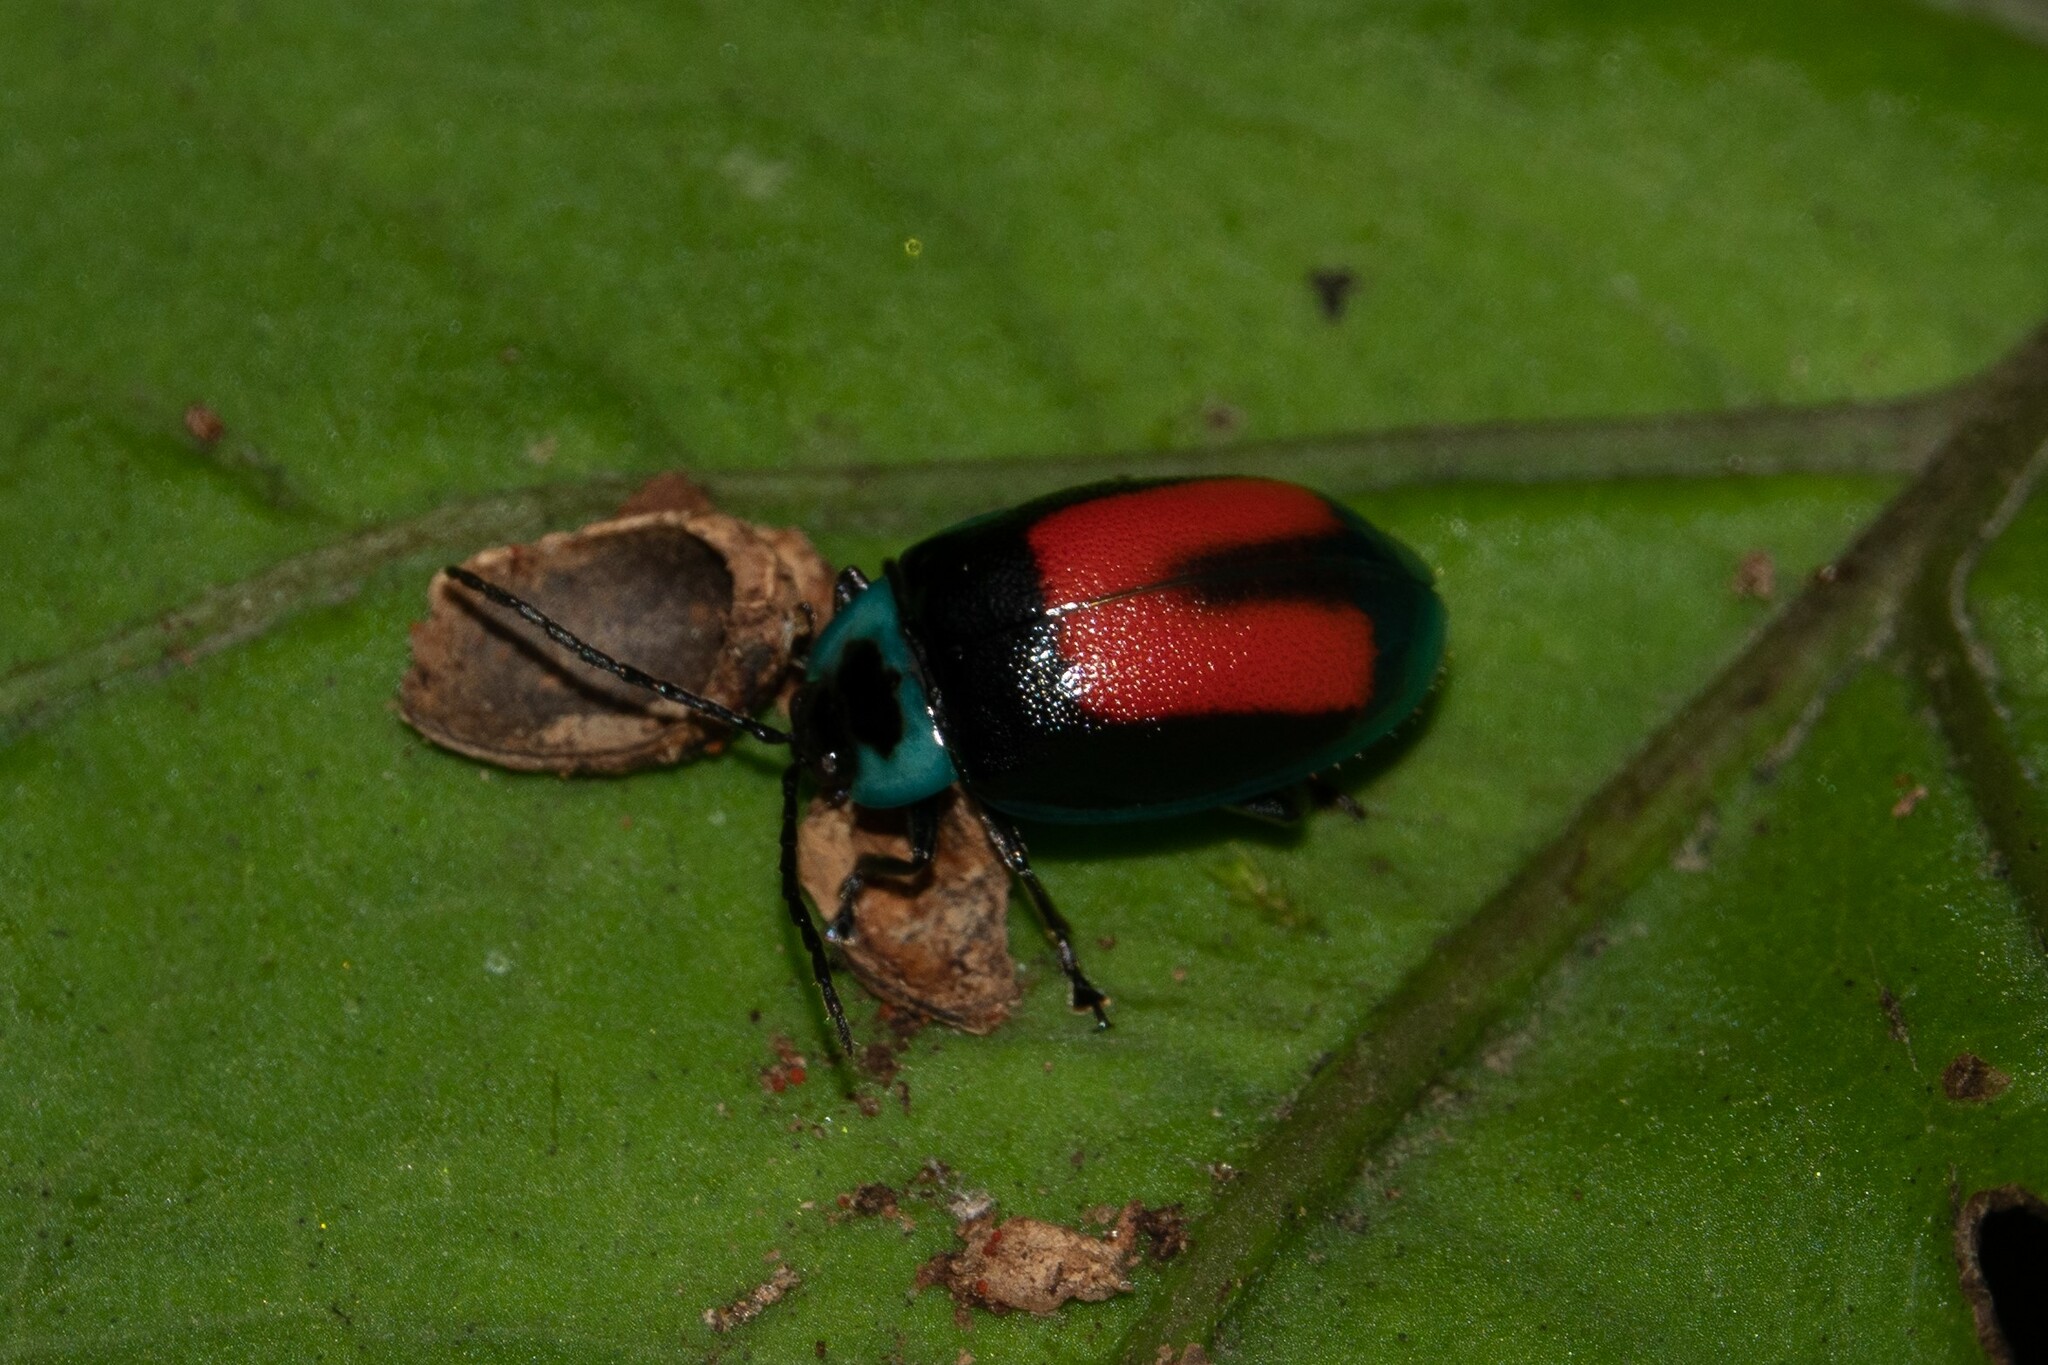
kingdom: Animalia
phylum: Arthropoda
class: Insecta
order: Coleoptera
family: Chrysomelidae
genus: Aspicela
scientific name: Aspicela
